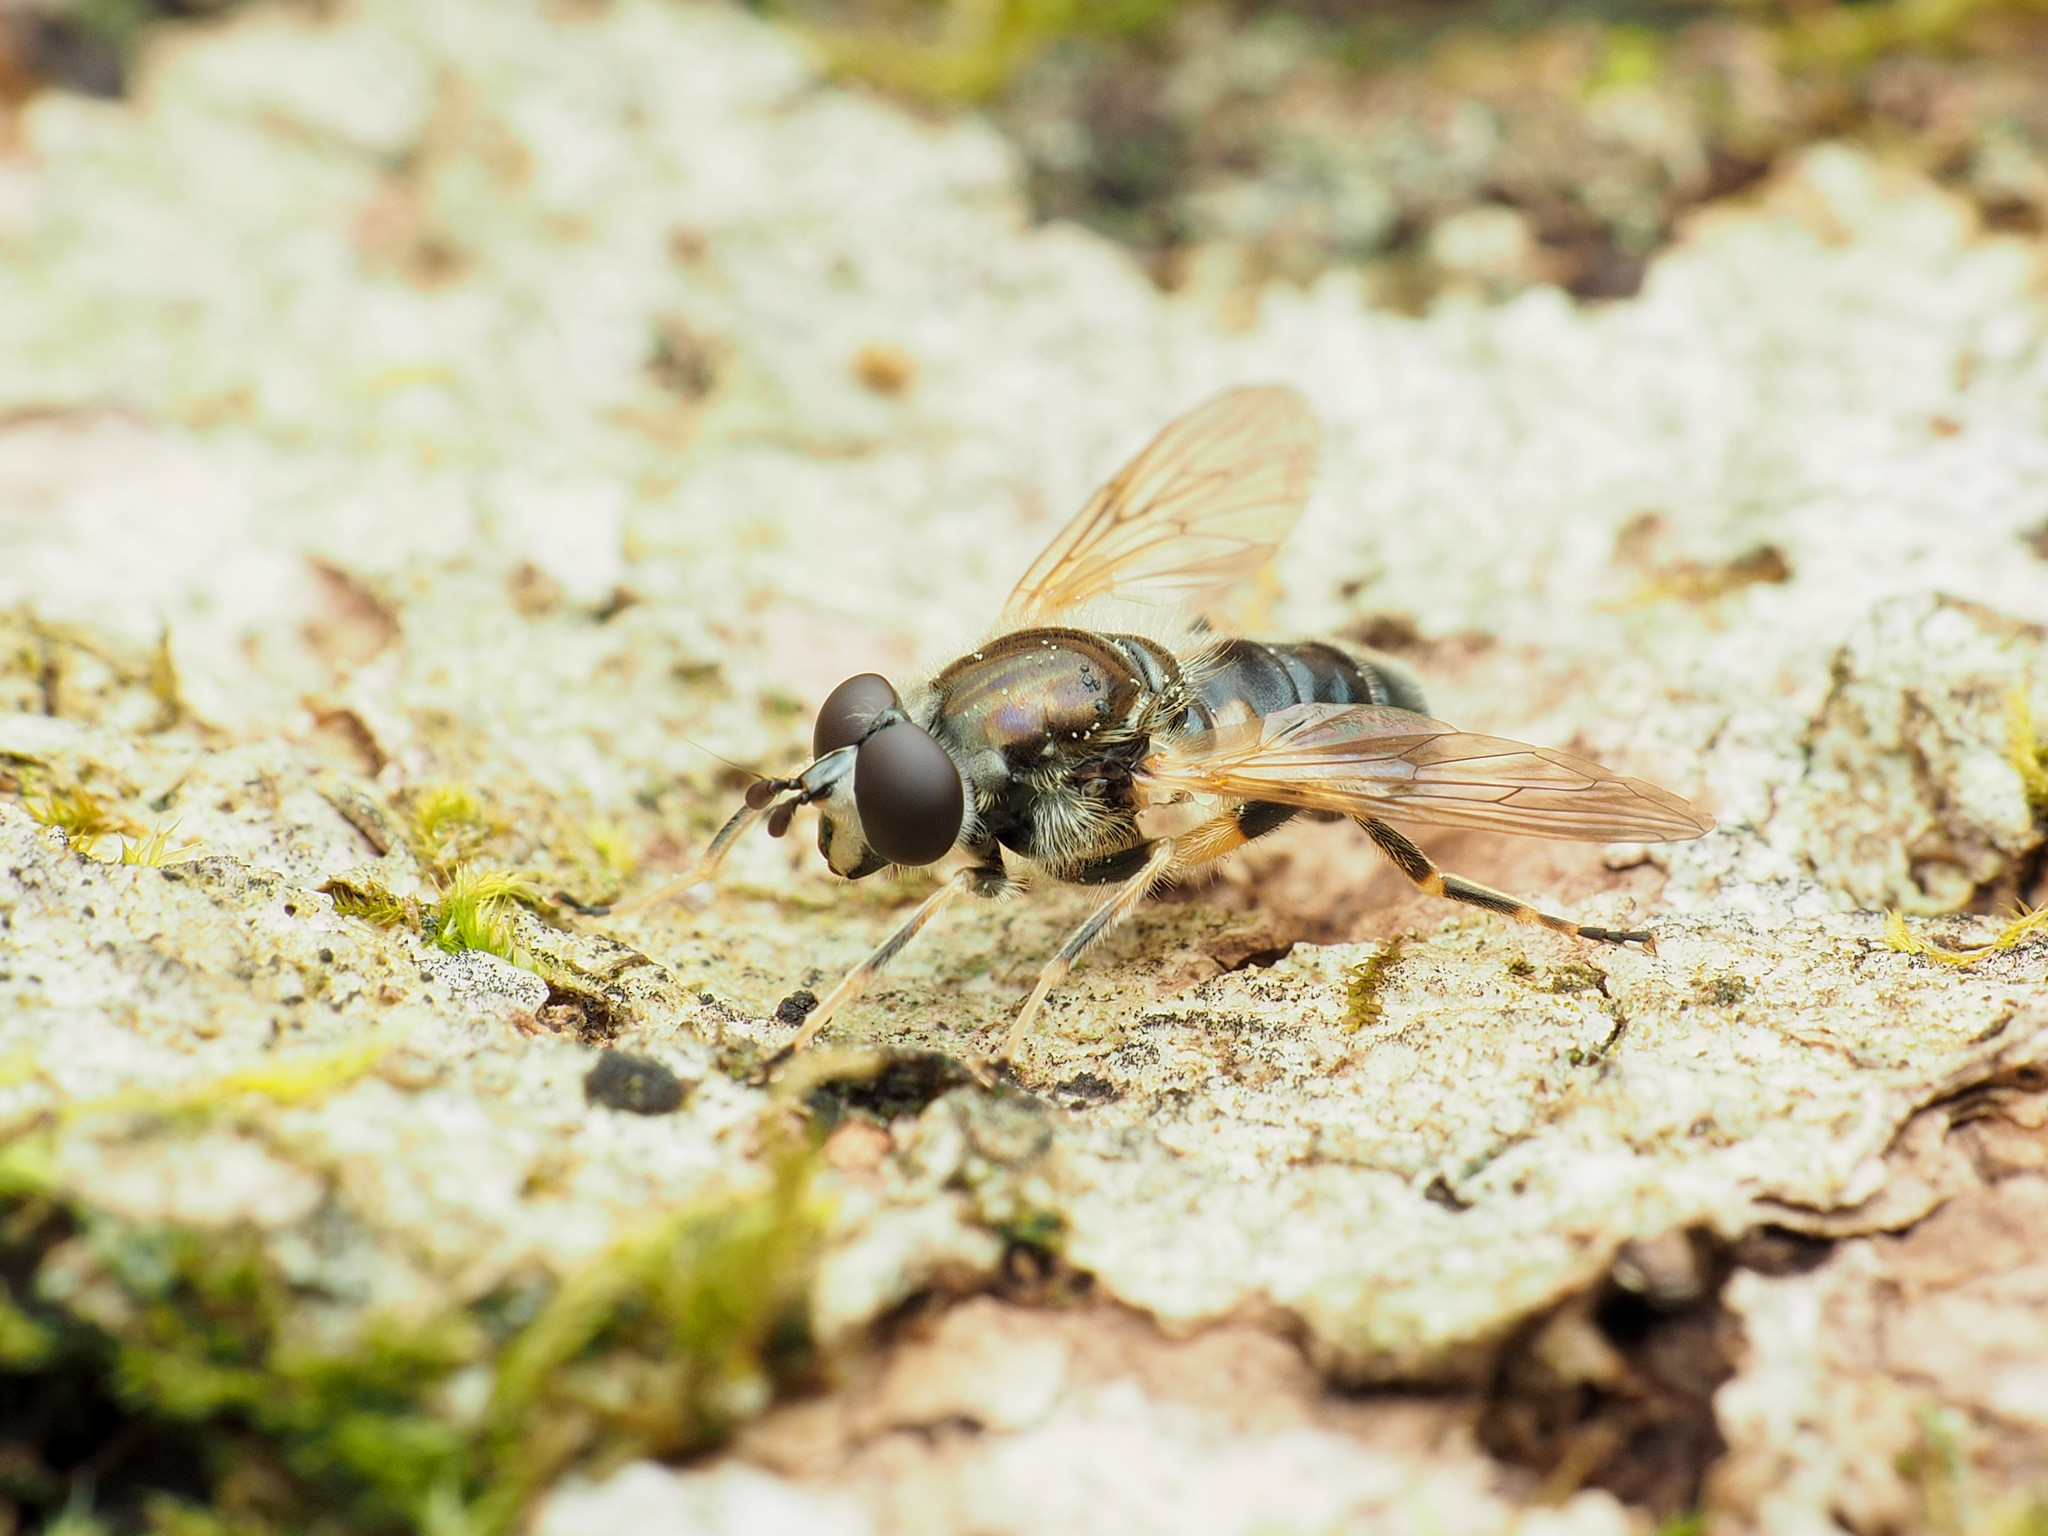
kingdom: Animalia
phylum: Arthropoda
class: Insecta
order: Diptera
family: Syrphidae
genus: Blera
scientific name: Blera badia
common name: Common wood fly
